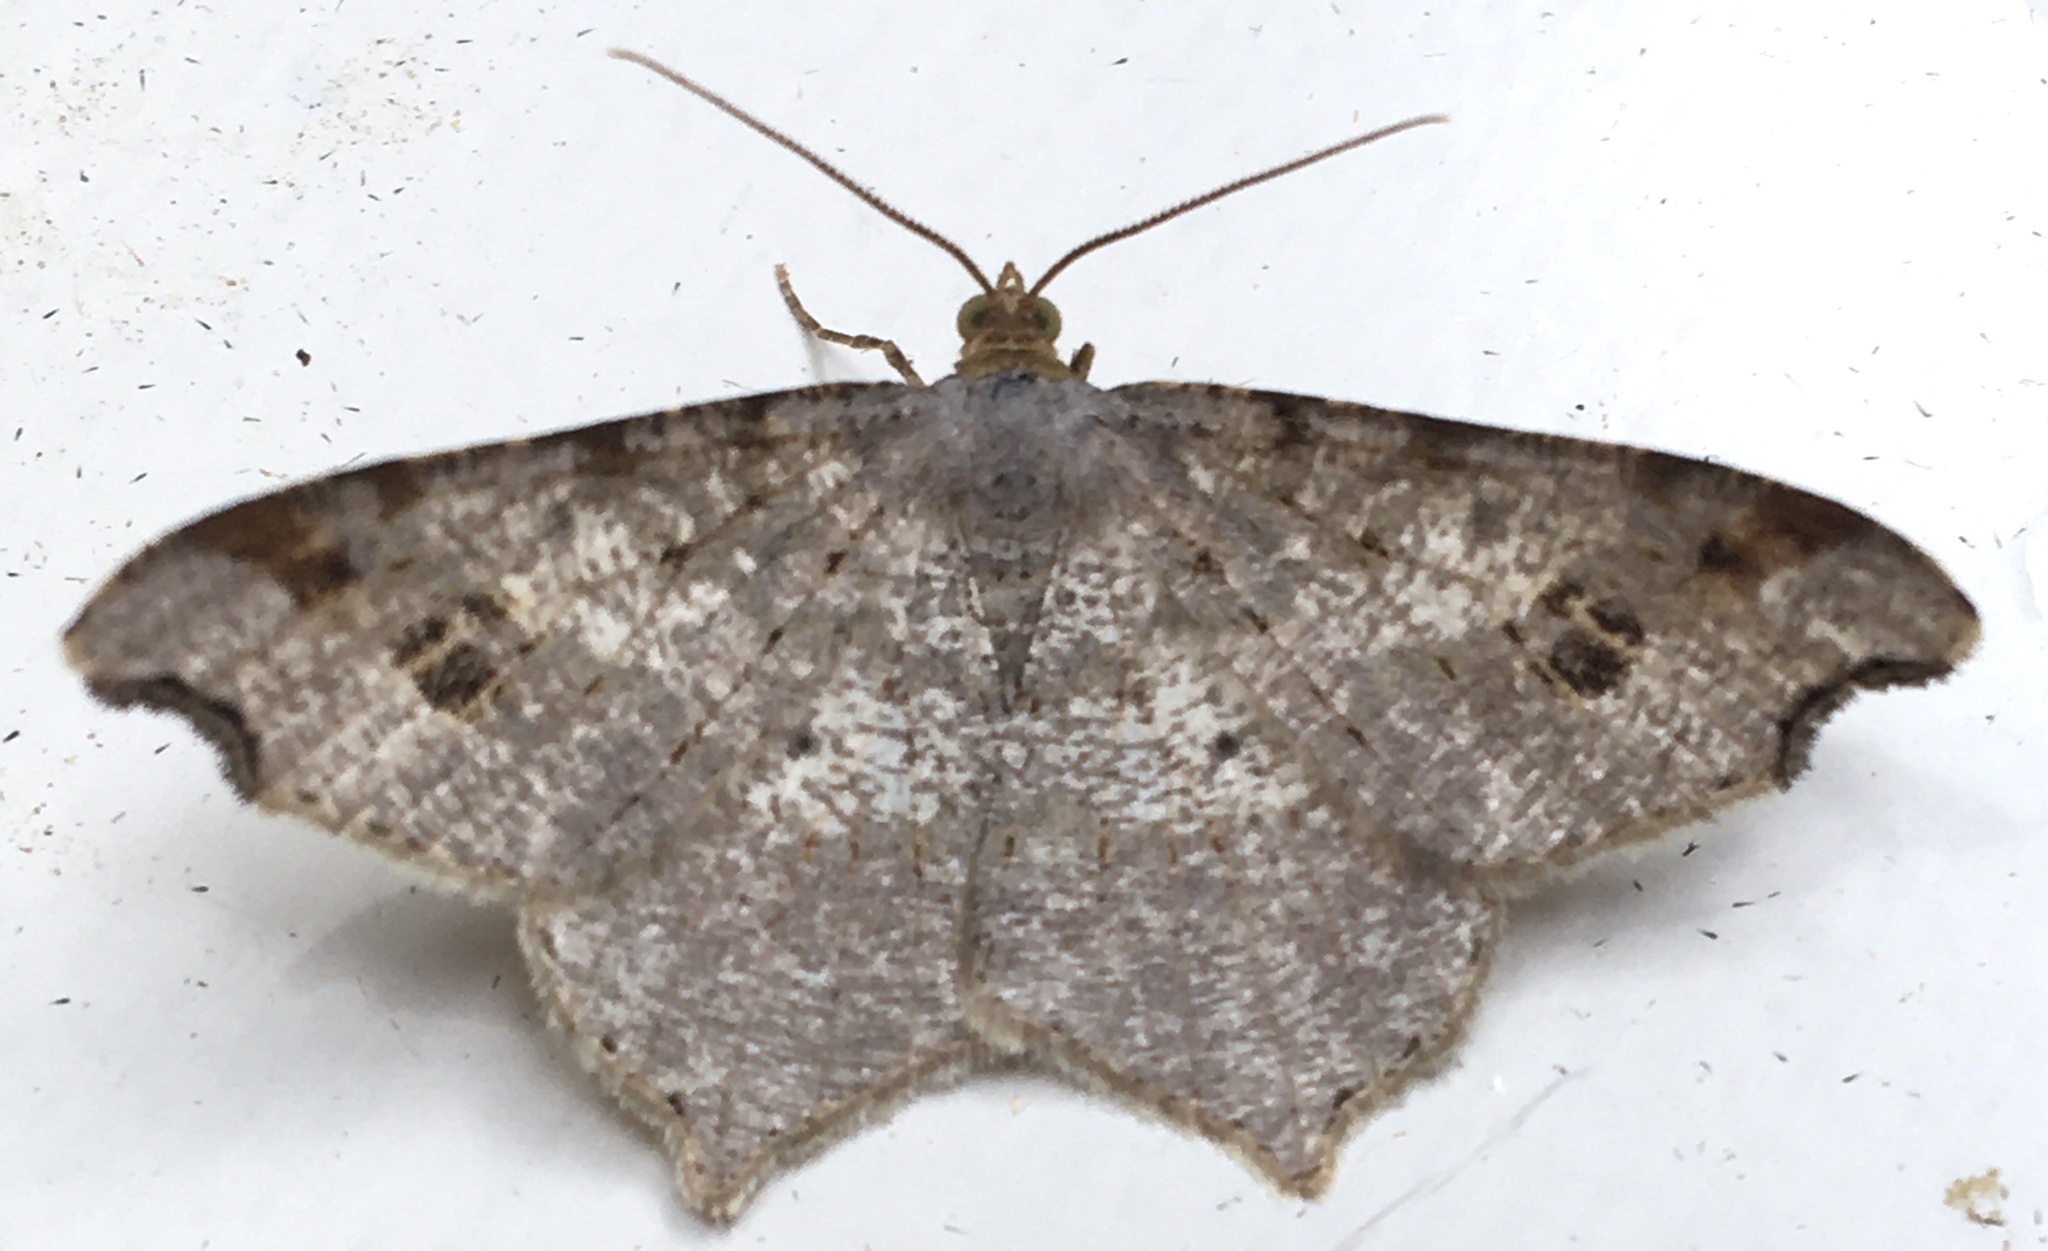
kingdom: Animalia
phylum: Arthropoda
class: Insecta
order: Lepidoptera
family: Geometridae
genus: Macaria
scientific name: Macaria alternata
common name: Sharp-angled peacock
